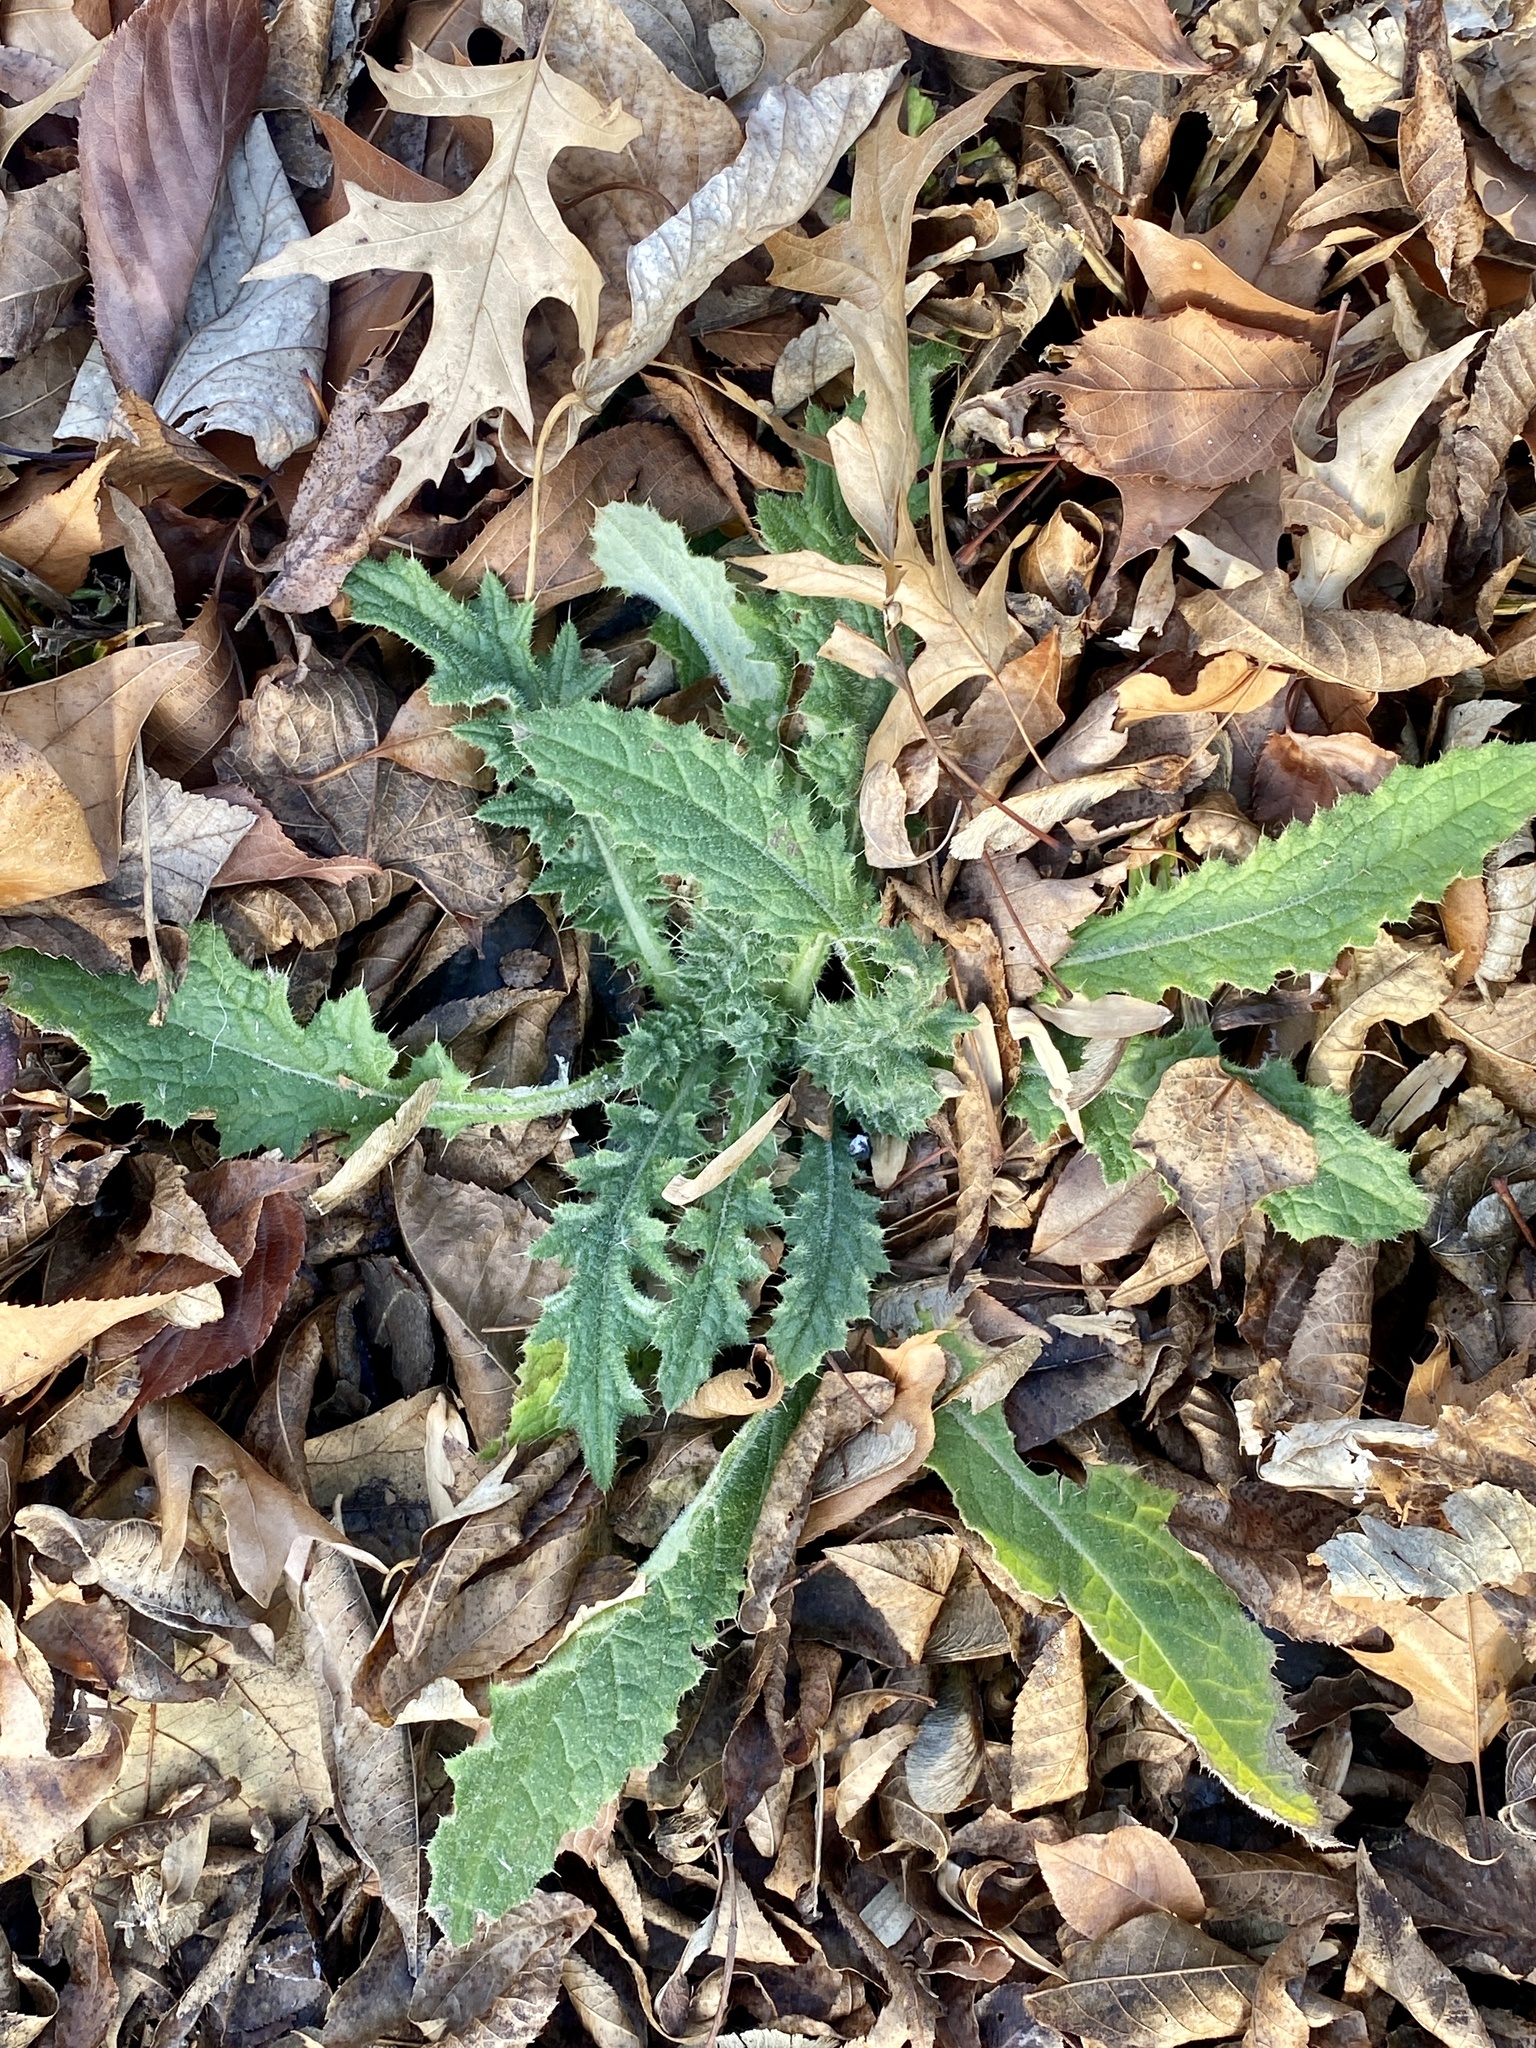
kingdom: Plantae
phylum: Tracheophyta
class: Magnoliopsida
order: Asterales
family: Asteraceae
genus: Cirsium
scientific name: Cirsium vulgare
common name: Bull thistle
